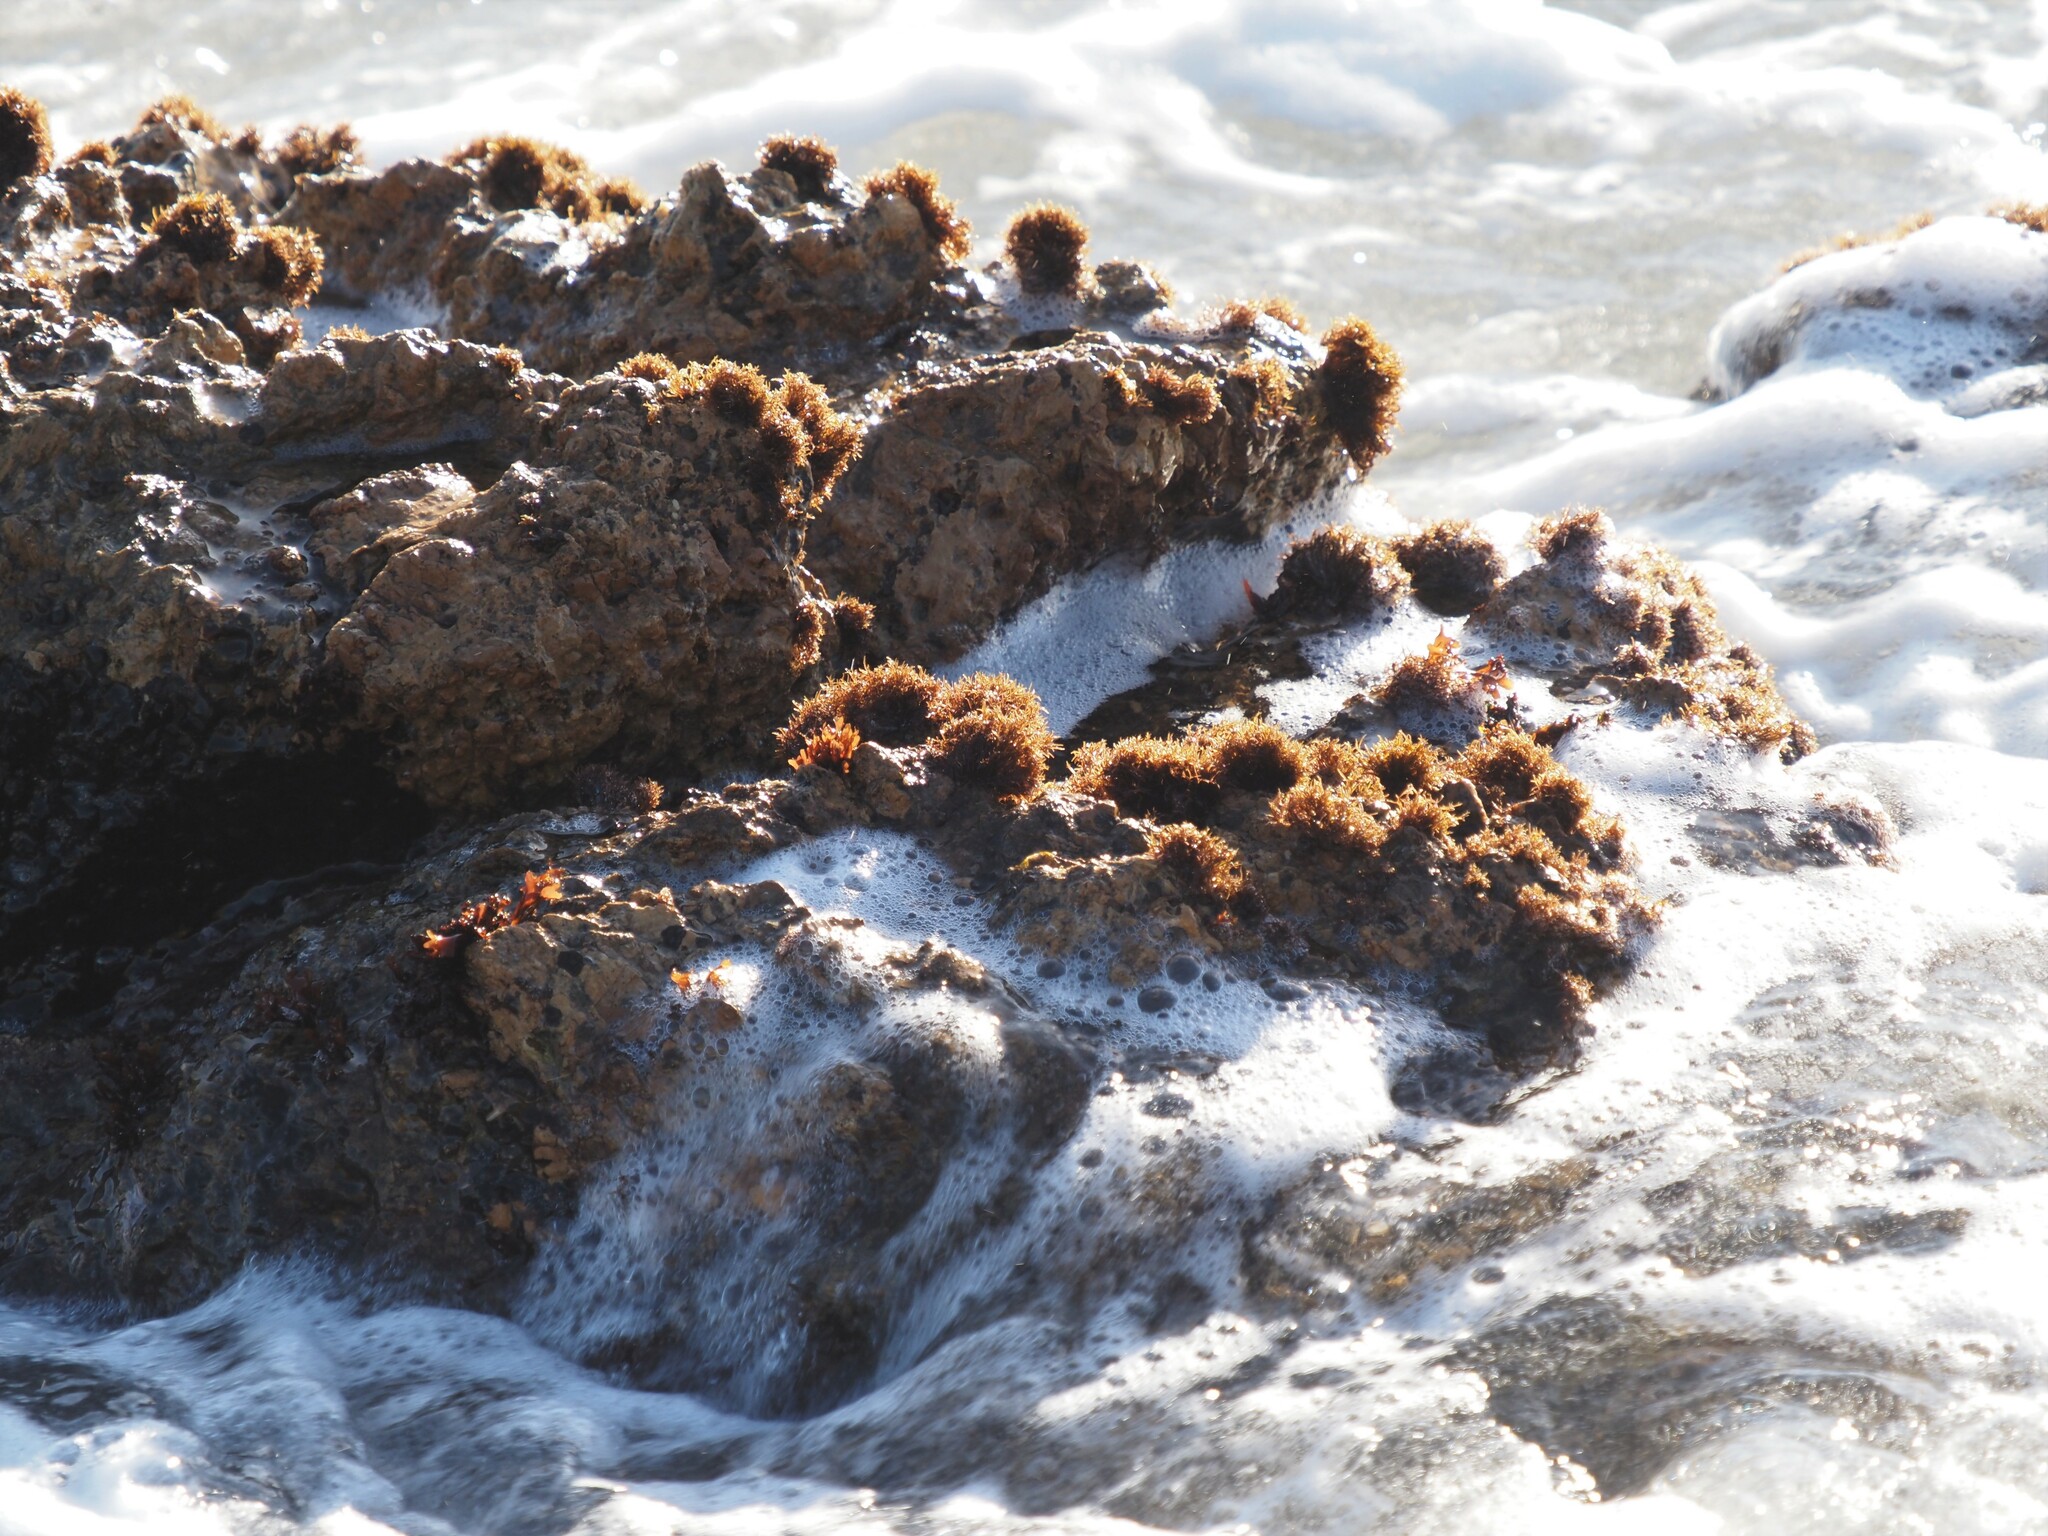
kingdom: Plantae
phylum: Rhodophyta
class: Florideophyceae
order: Gigartinales
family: Endocladiaceae
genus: Endocladia
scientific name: Endocladia muricata
